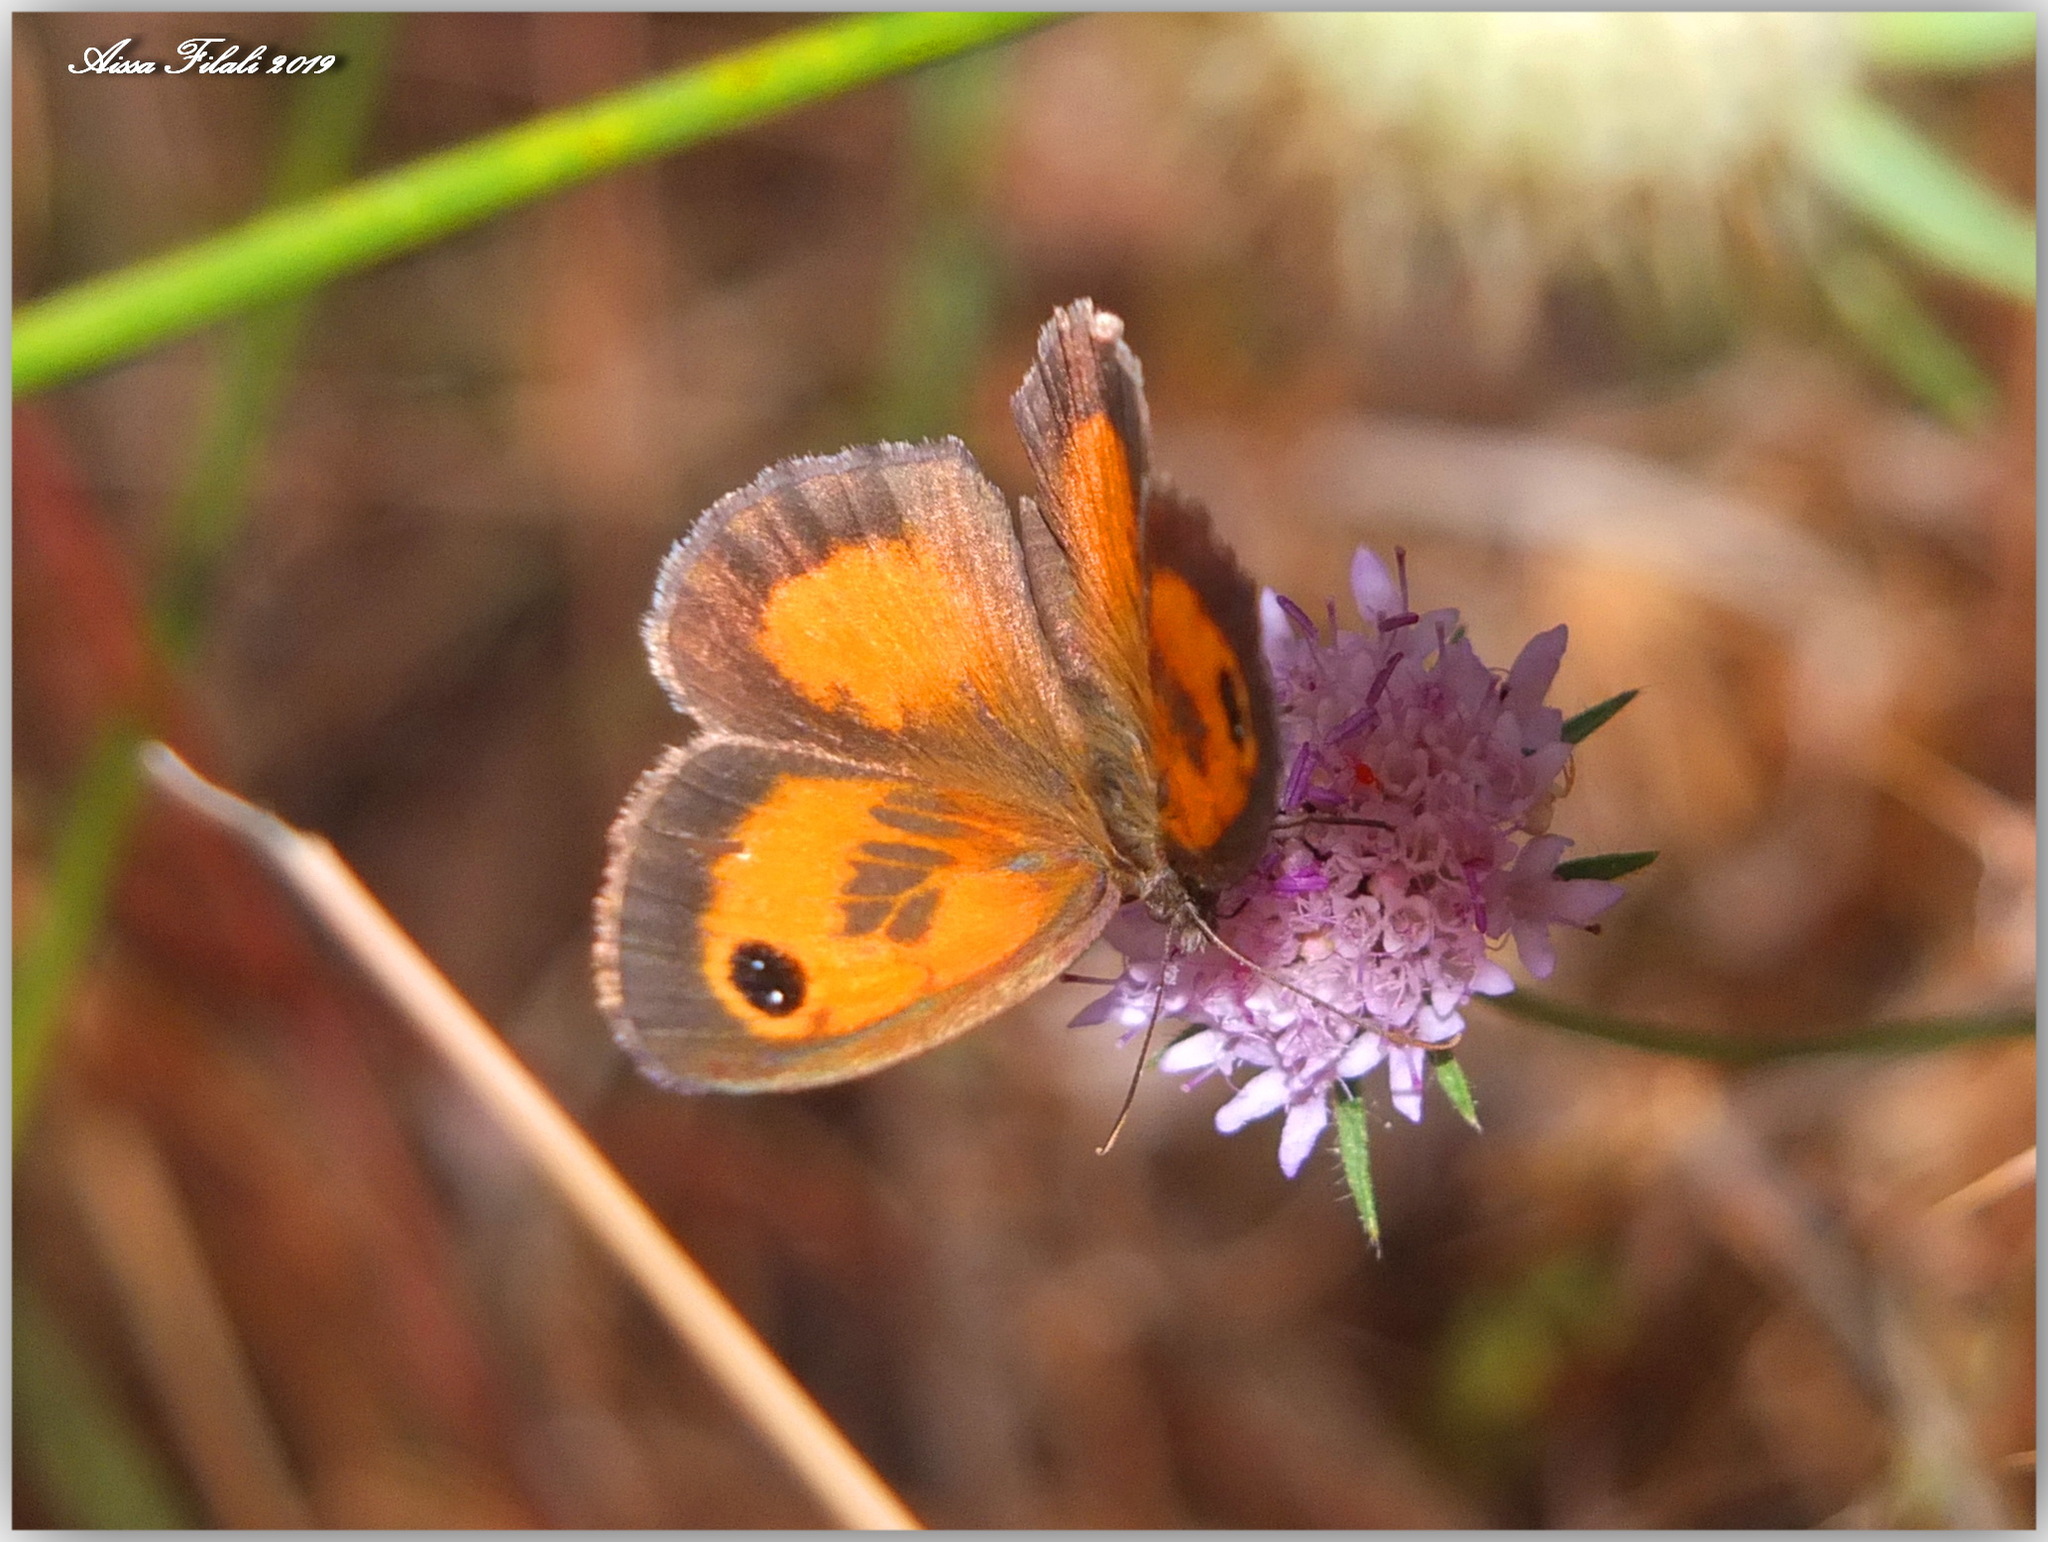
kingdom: Animalia
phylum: Arthropoda
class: Insecta
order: Lepidoptera
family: Nymphalidae
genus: Pyronia
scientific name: Pyronia cecilia
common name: Southern gatekeeper
